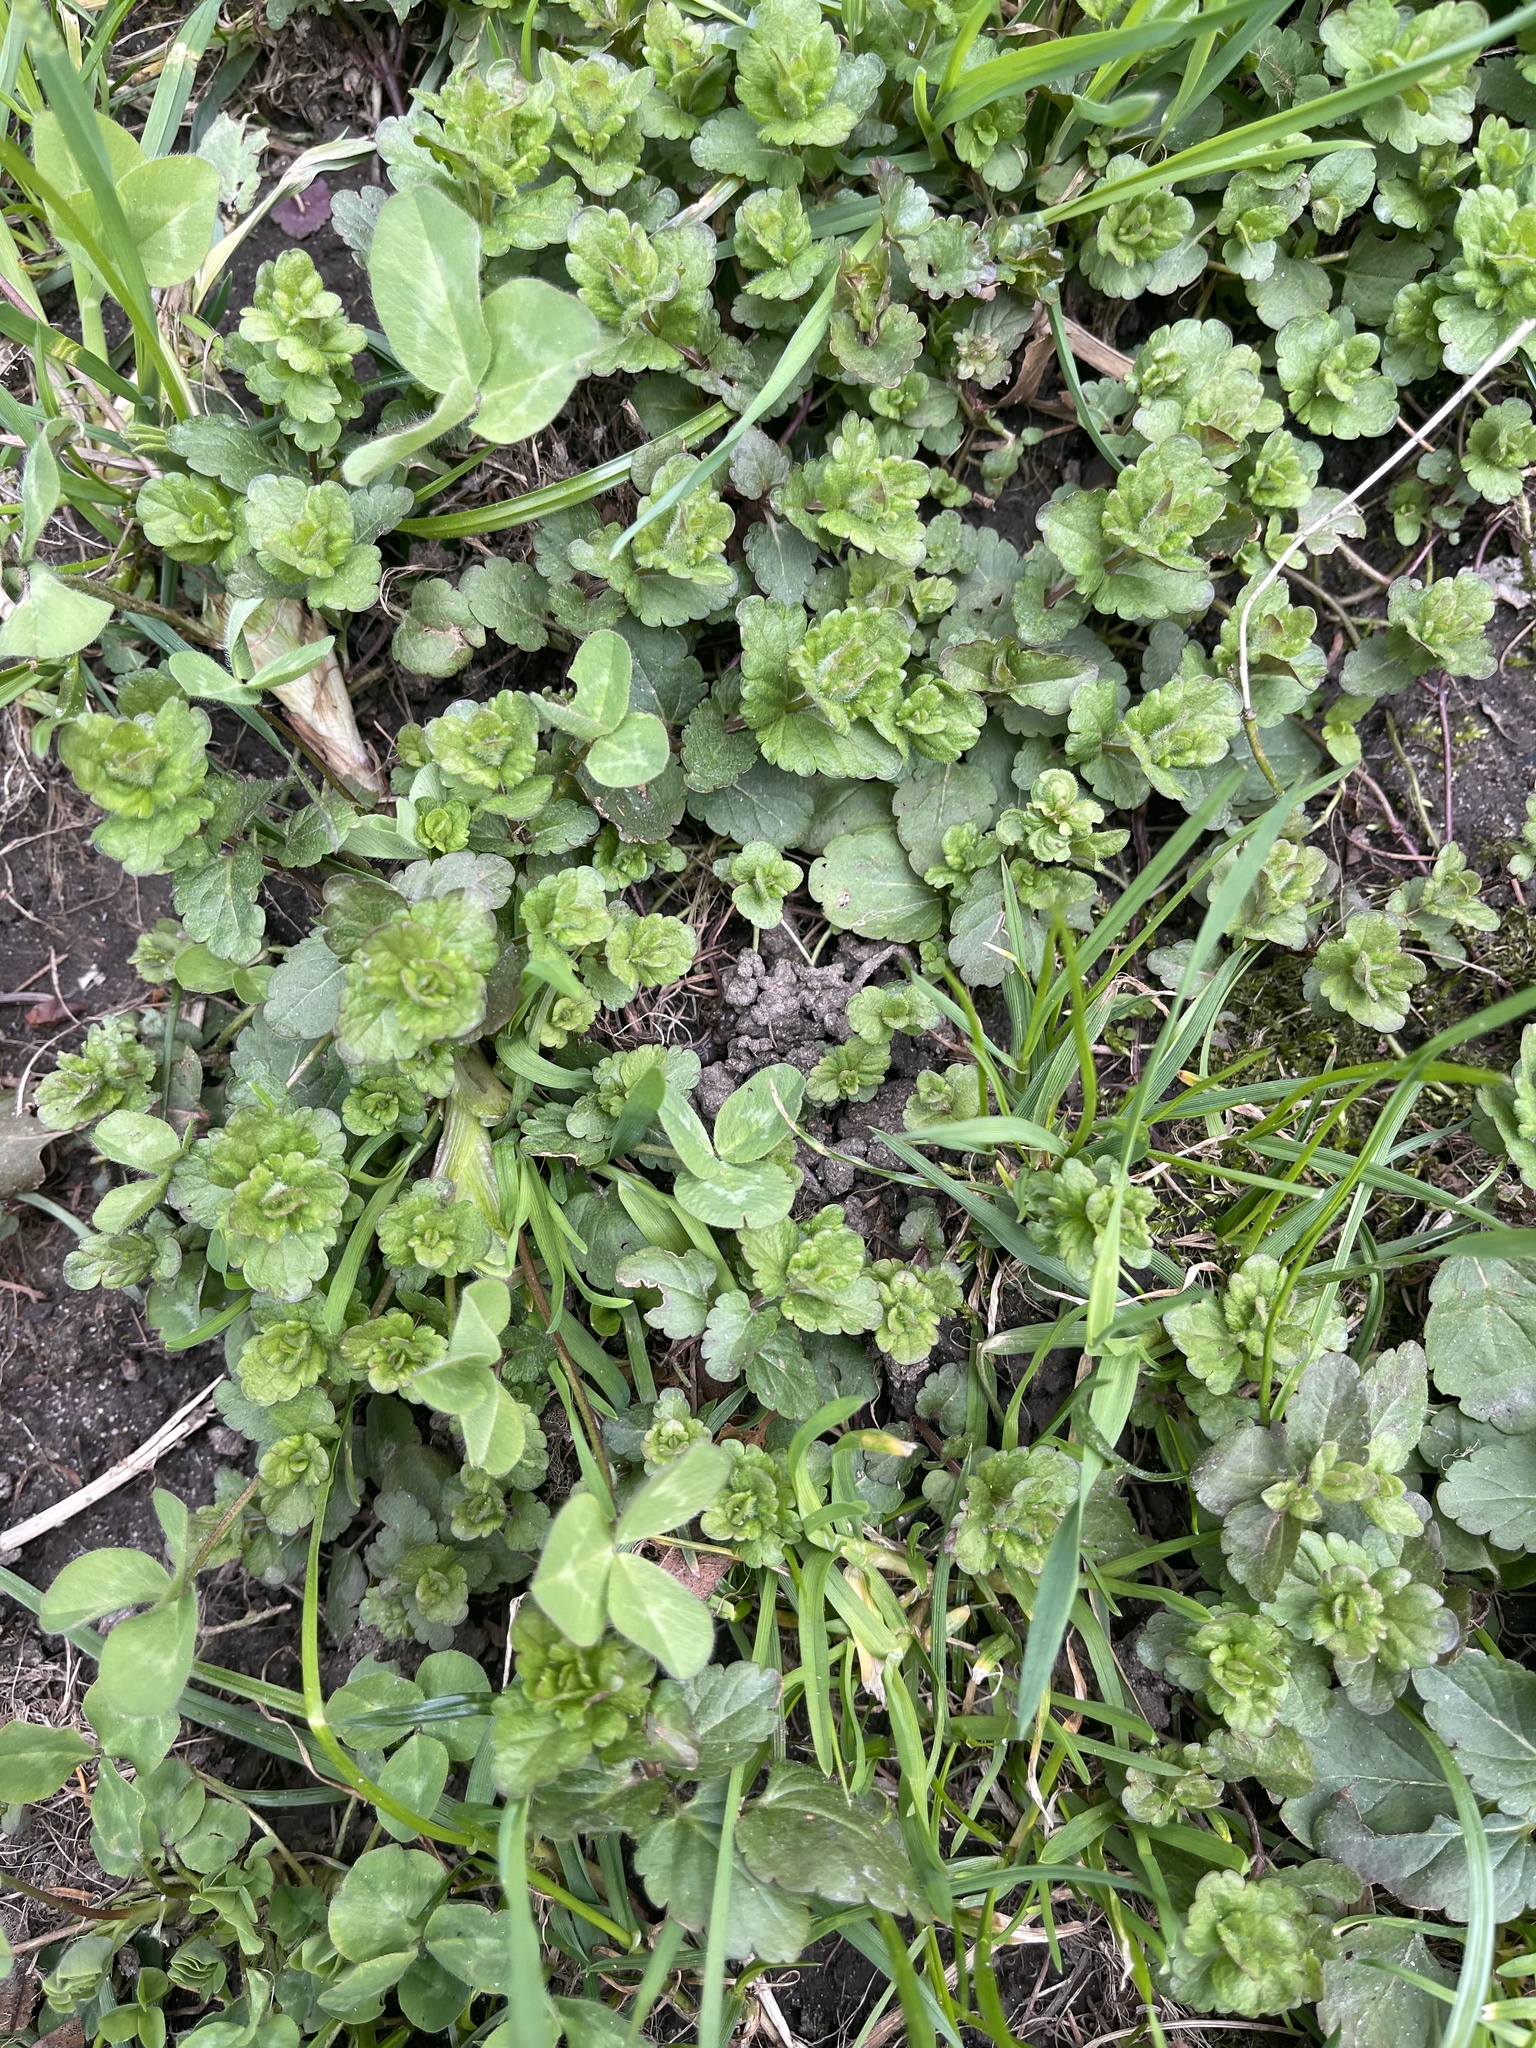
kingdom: Plantae
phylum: Tracheophyta
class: Magnoliopsida
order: Lamiales
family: Plantaginaceae
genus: Veronica
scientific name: Veronica chamaedrys
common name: Germander speedwell
